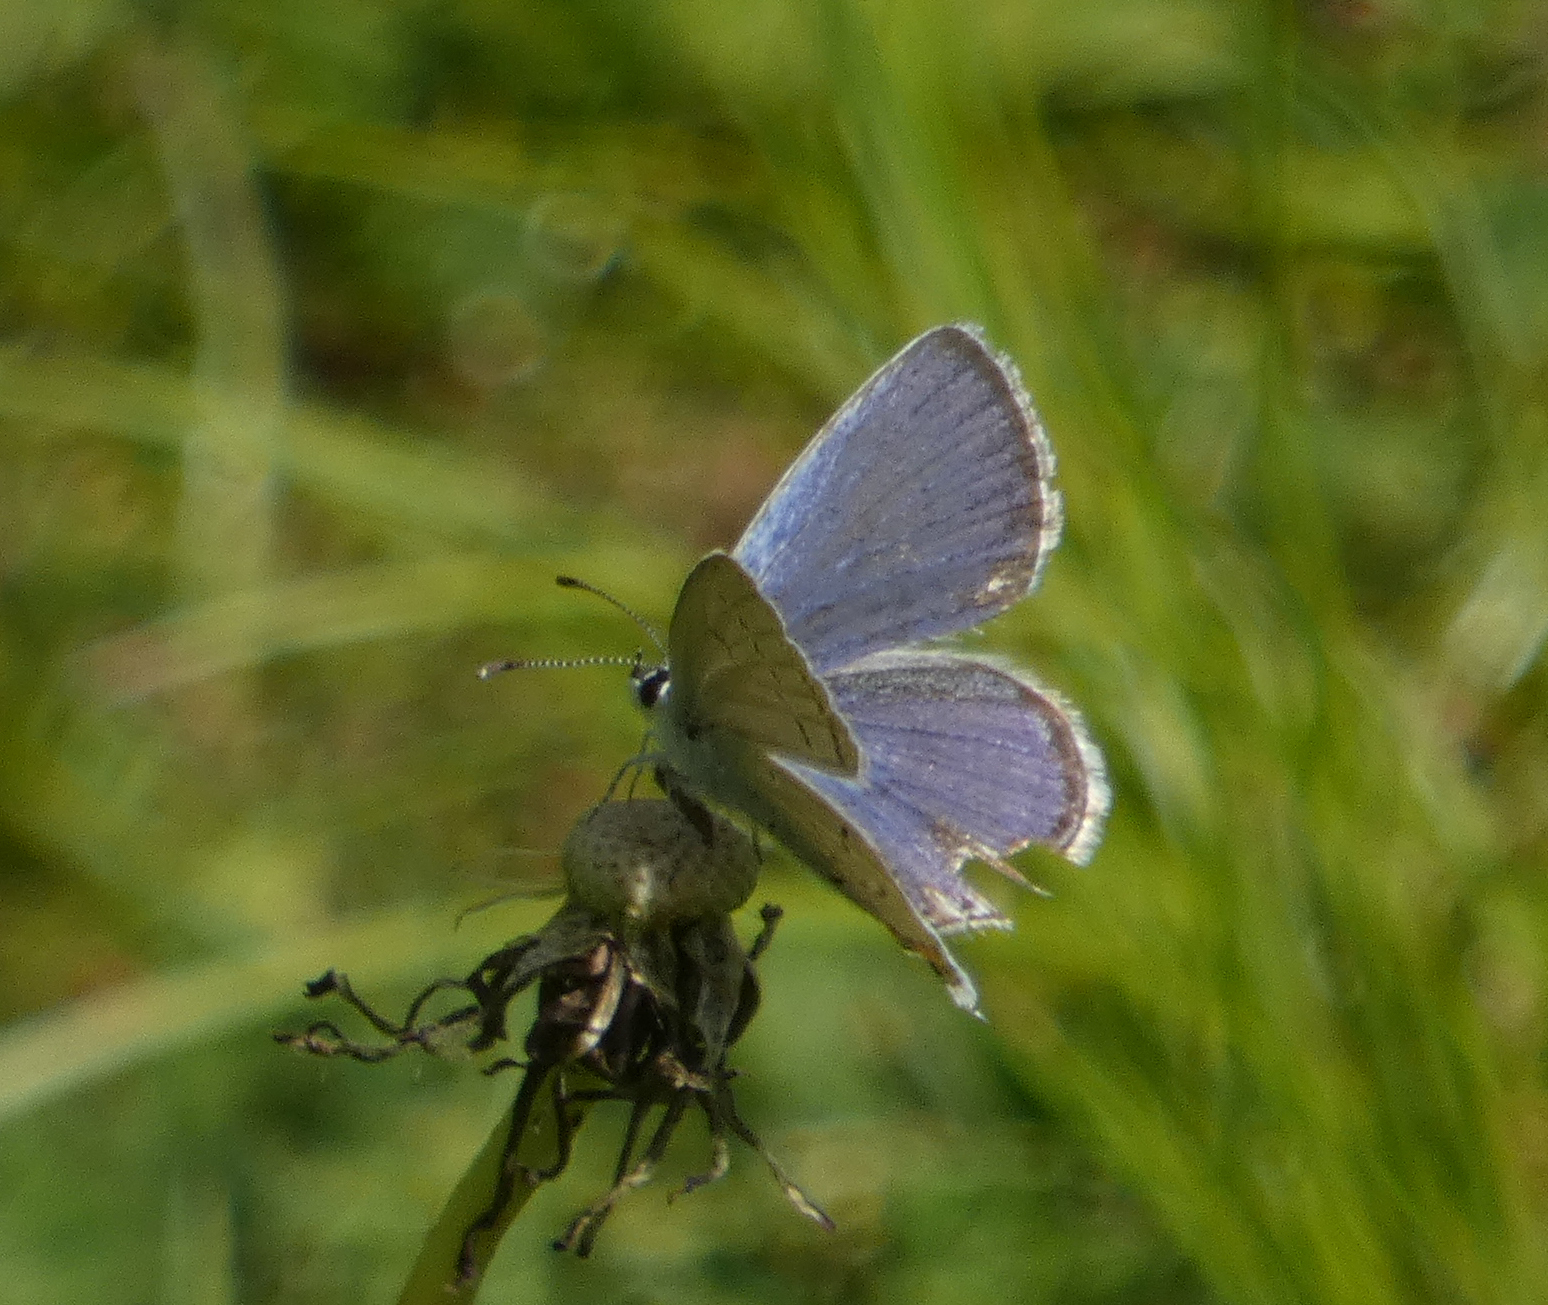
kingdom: Animalia
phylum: Arthropoda
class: Insecta
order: Lepidoptera
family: Lycaenidae
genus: Elkalyce
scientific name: Elkalyce comyntas
